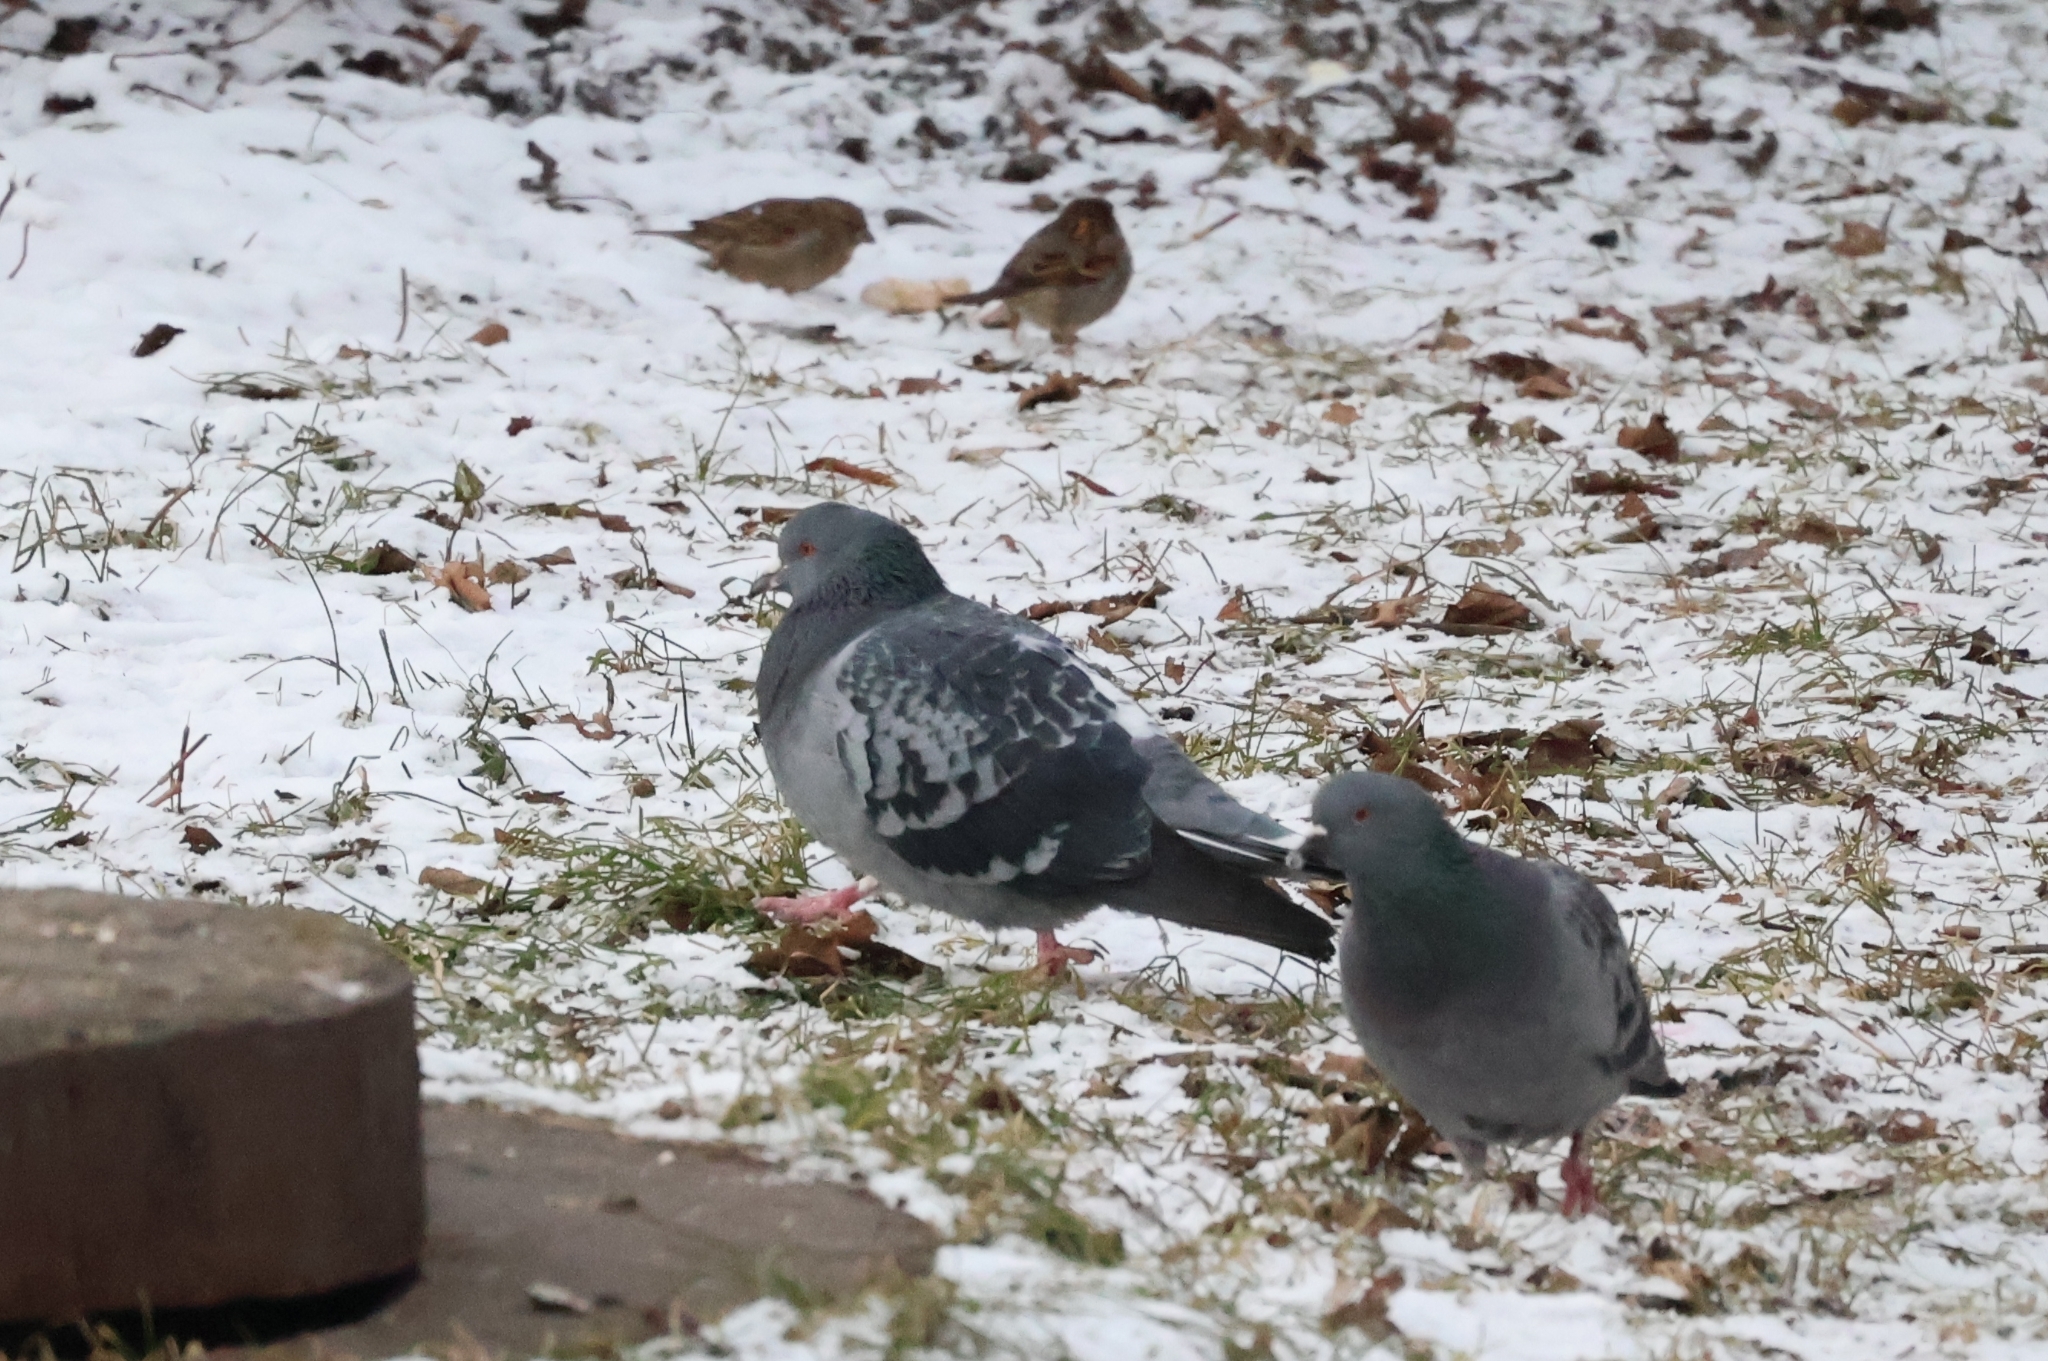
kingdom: Animalia
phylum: Chordata
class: Aves
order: Passeriformes
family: Passeridae
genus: Passer
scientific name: Passer domesticus
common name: House sparrow
